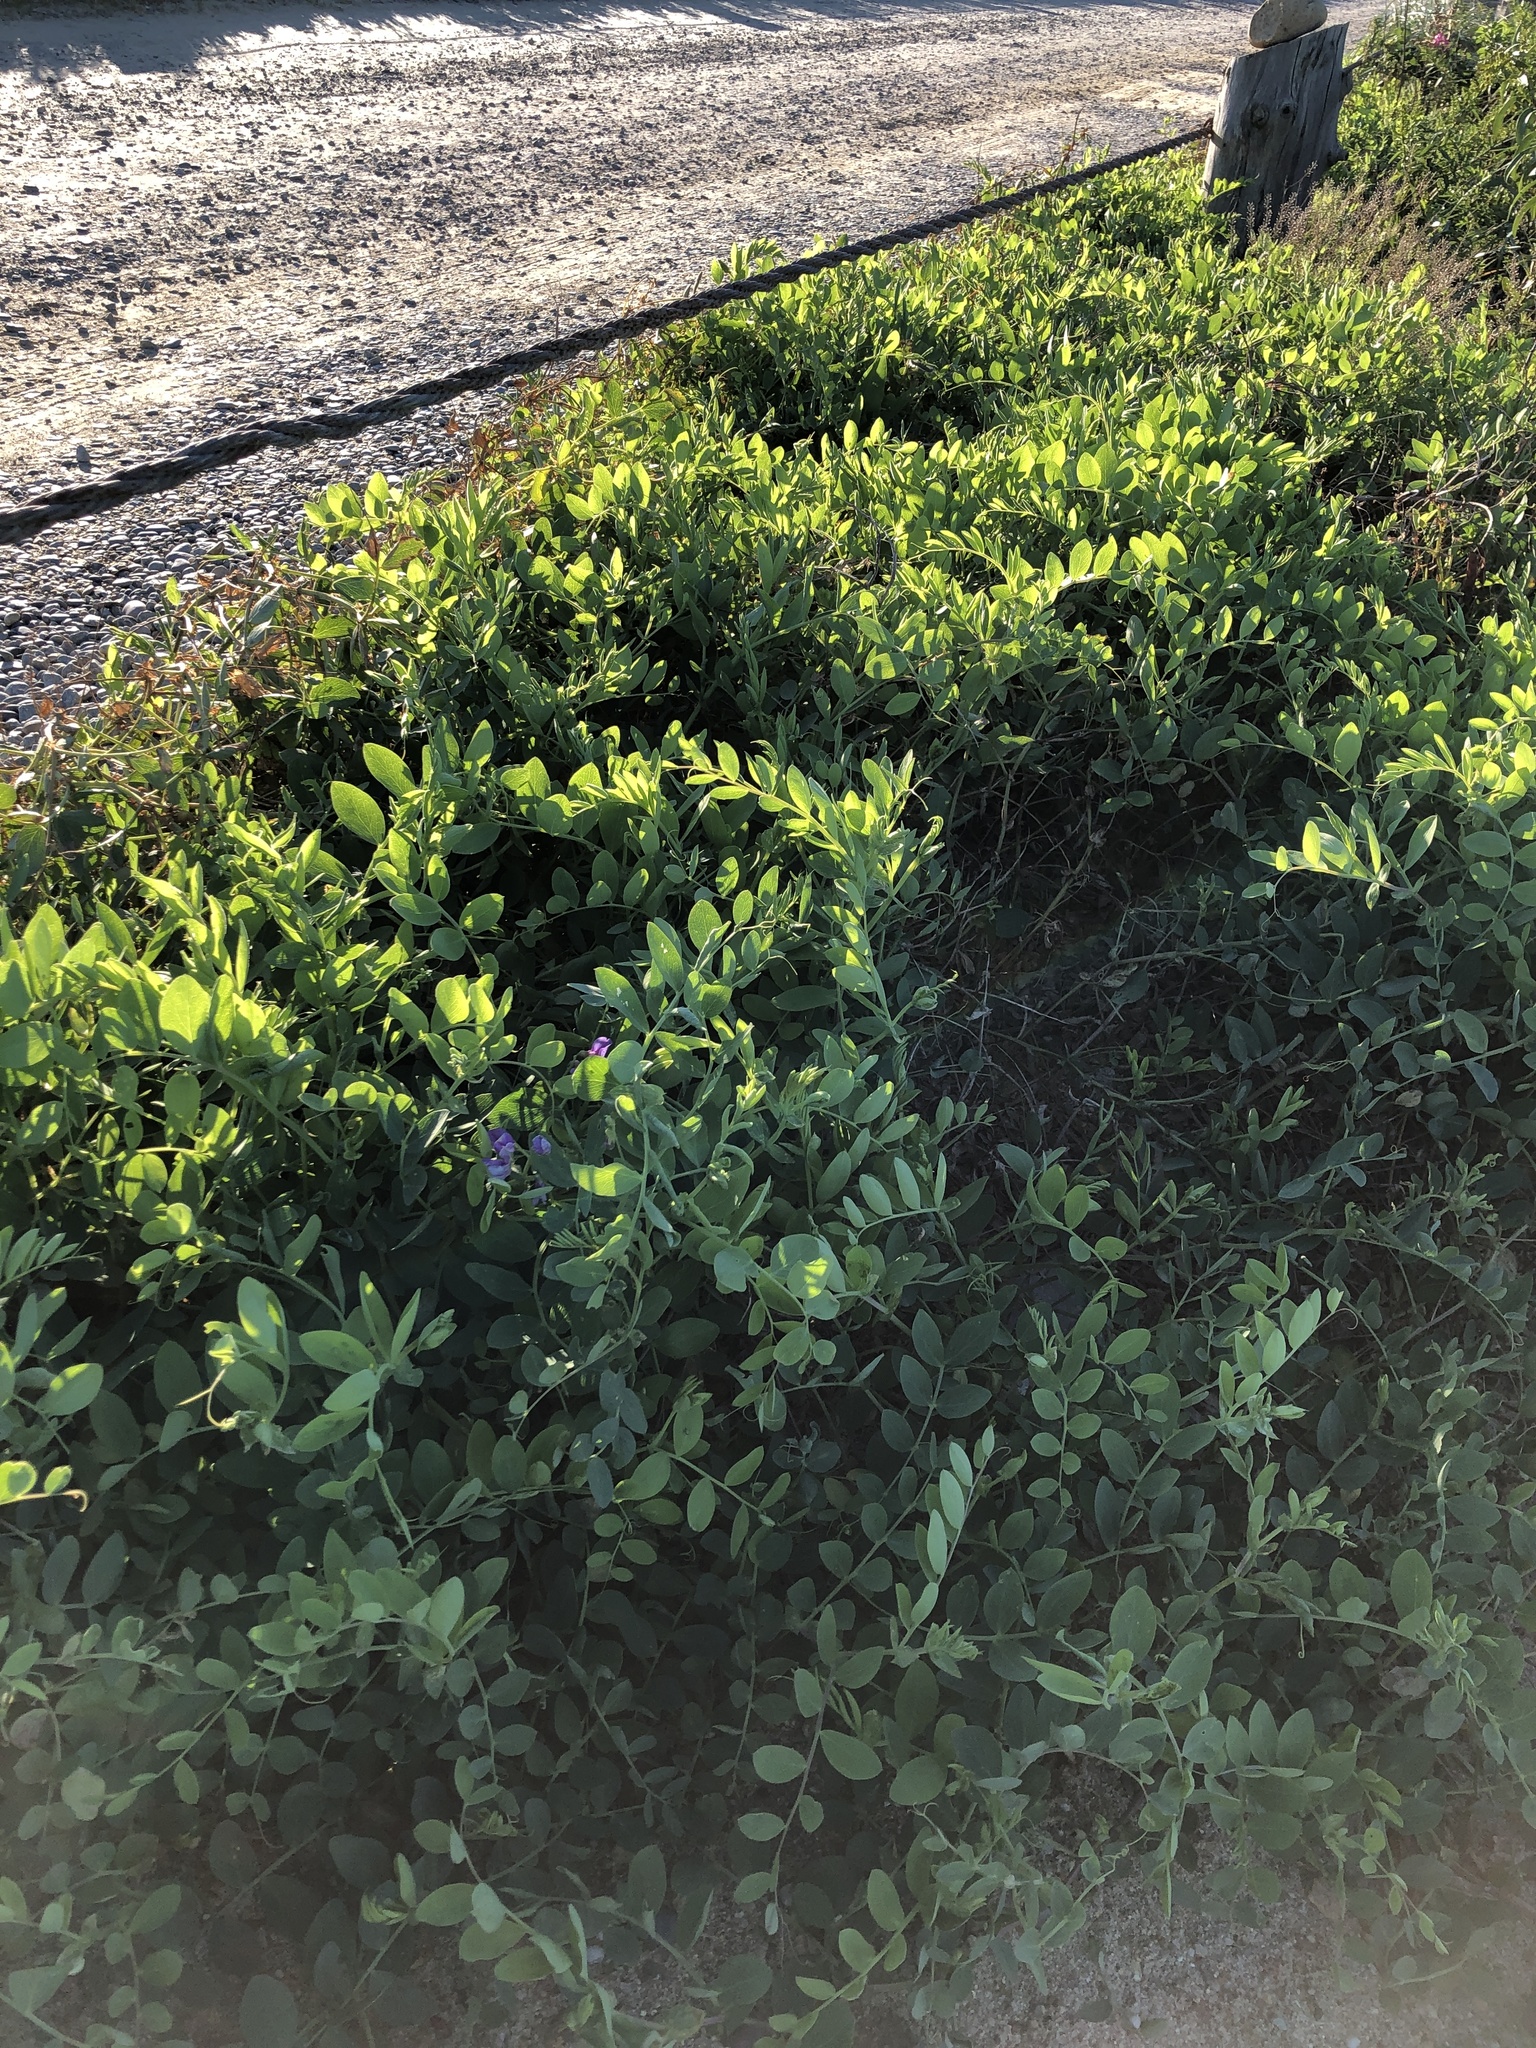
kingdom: Plantae
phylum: Tracheophyta
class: Magnoliopsida
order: Fabales
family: Fabaceae
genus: Lathyrus
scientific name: Lathyrus japonicus
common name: Sea pea
